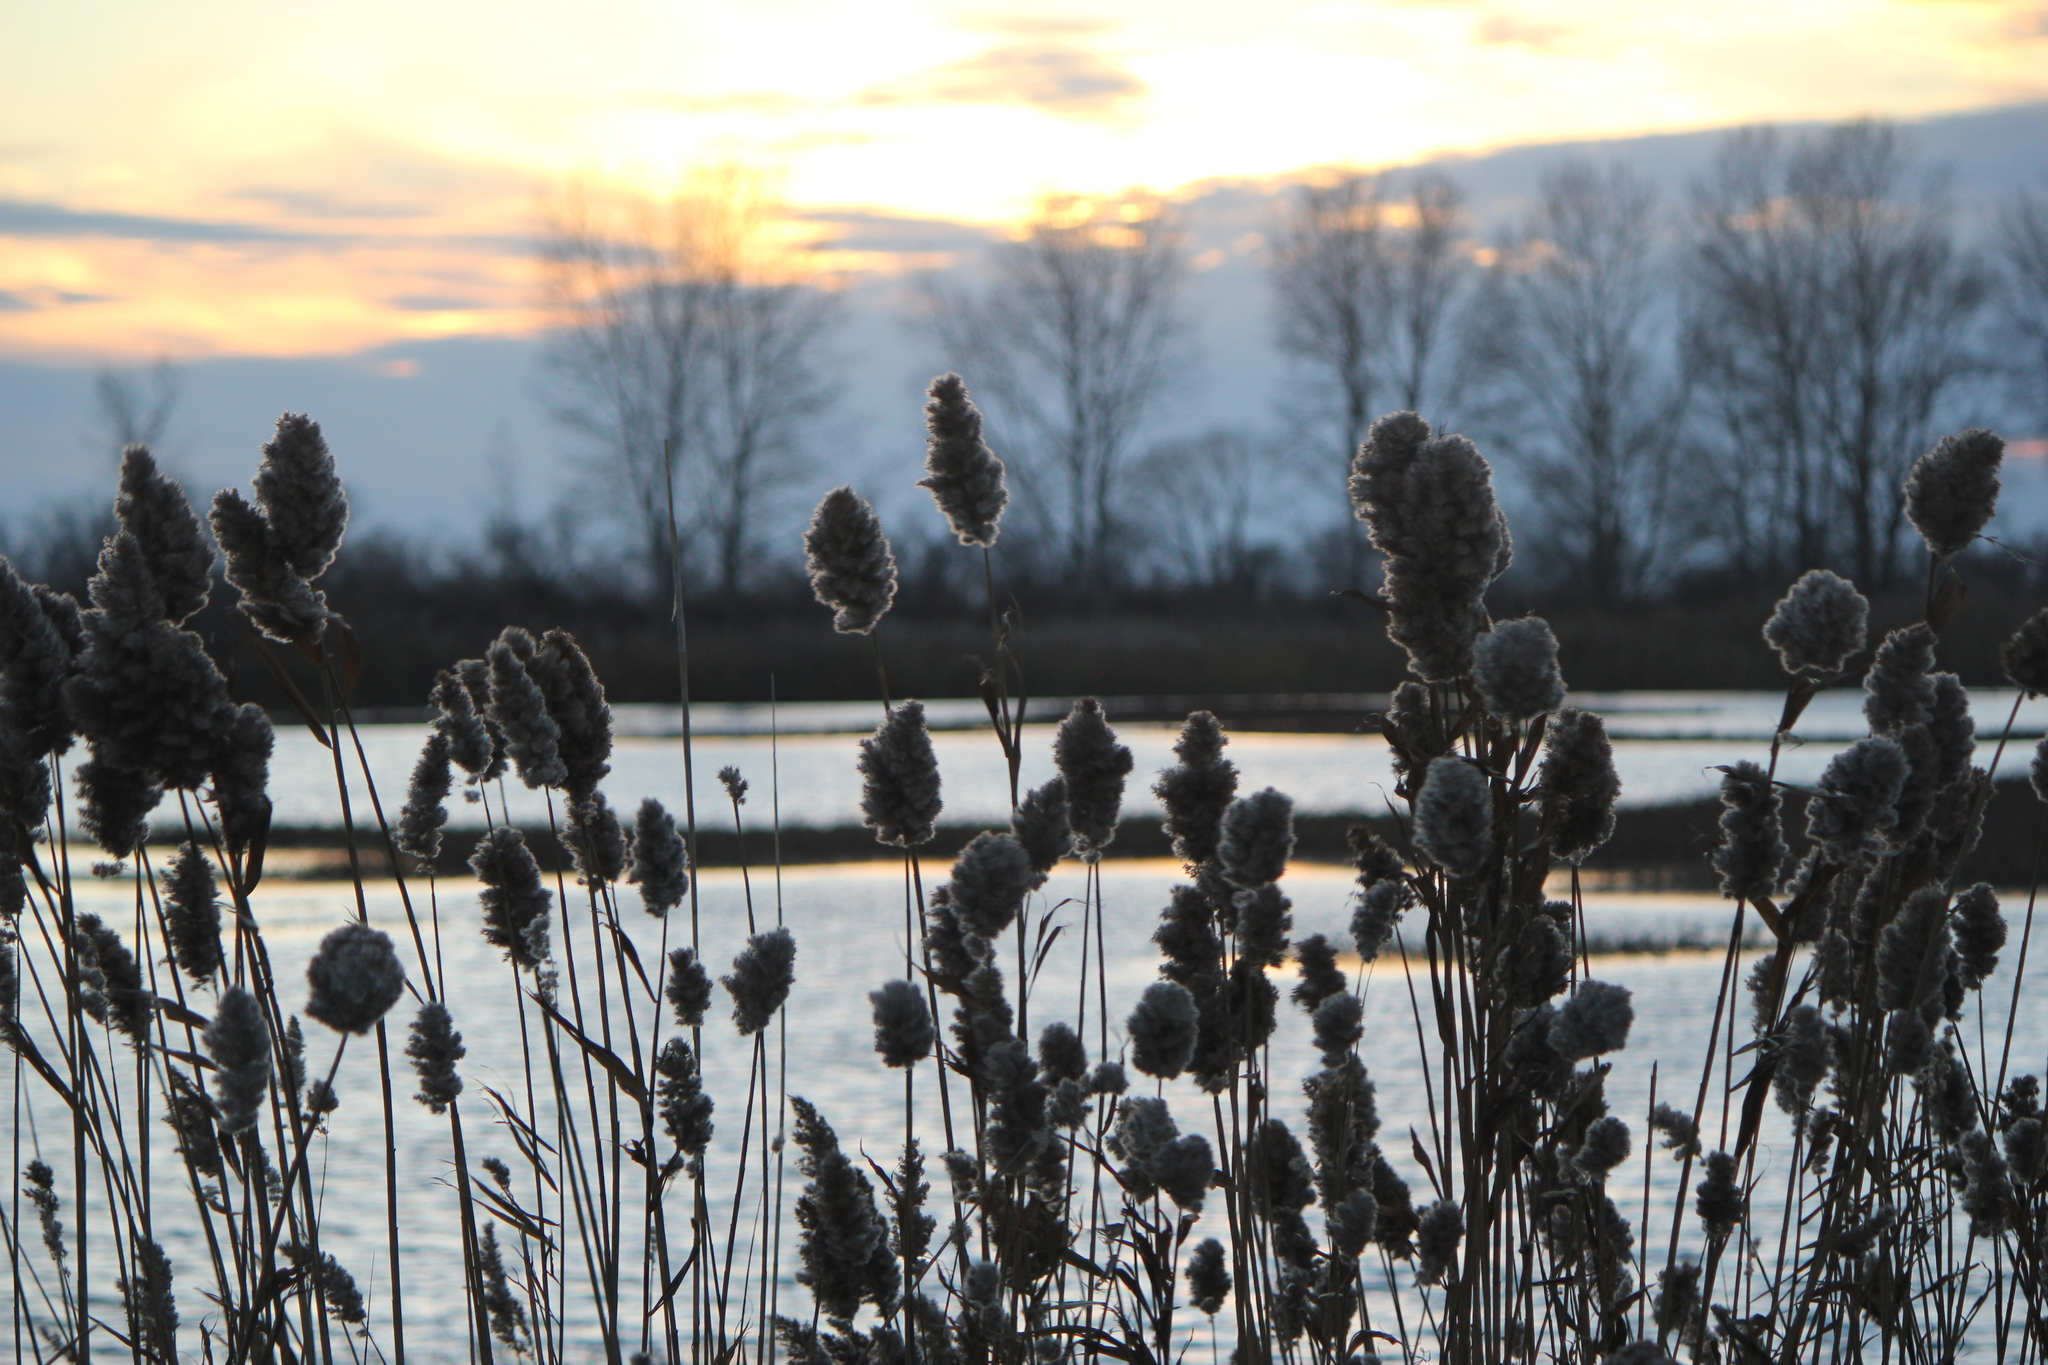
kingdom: Plantae
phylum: Tracheophyta
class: Liliopsida
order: Poales
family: Poaceae
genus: Phragmites
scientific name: Phragmites australis
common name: Common reed
